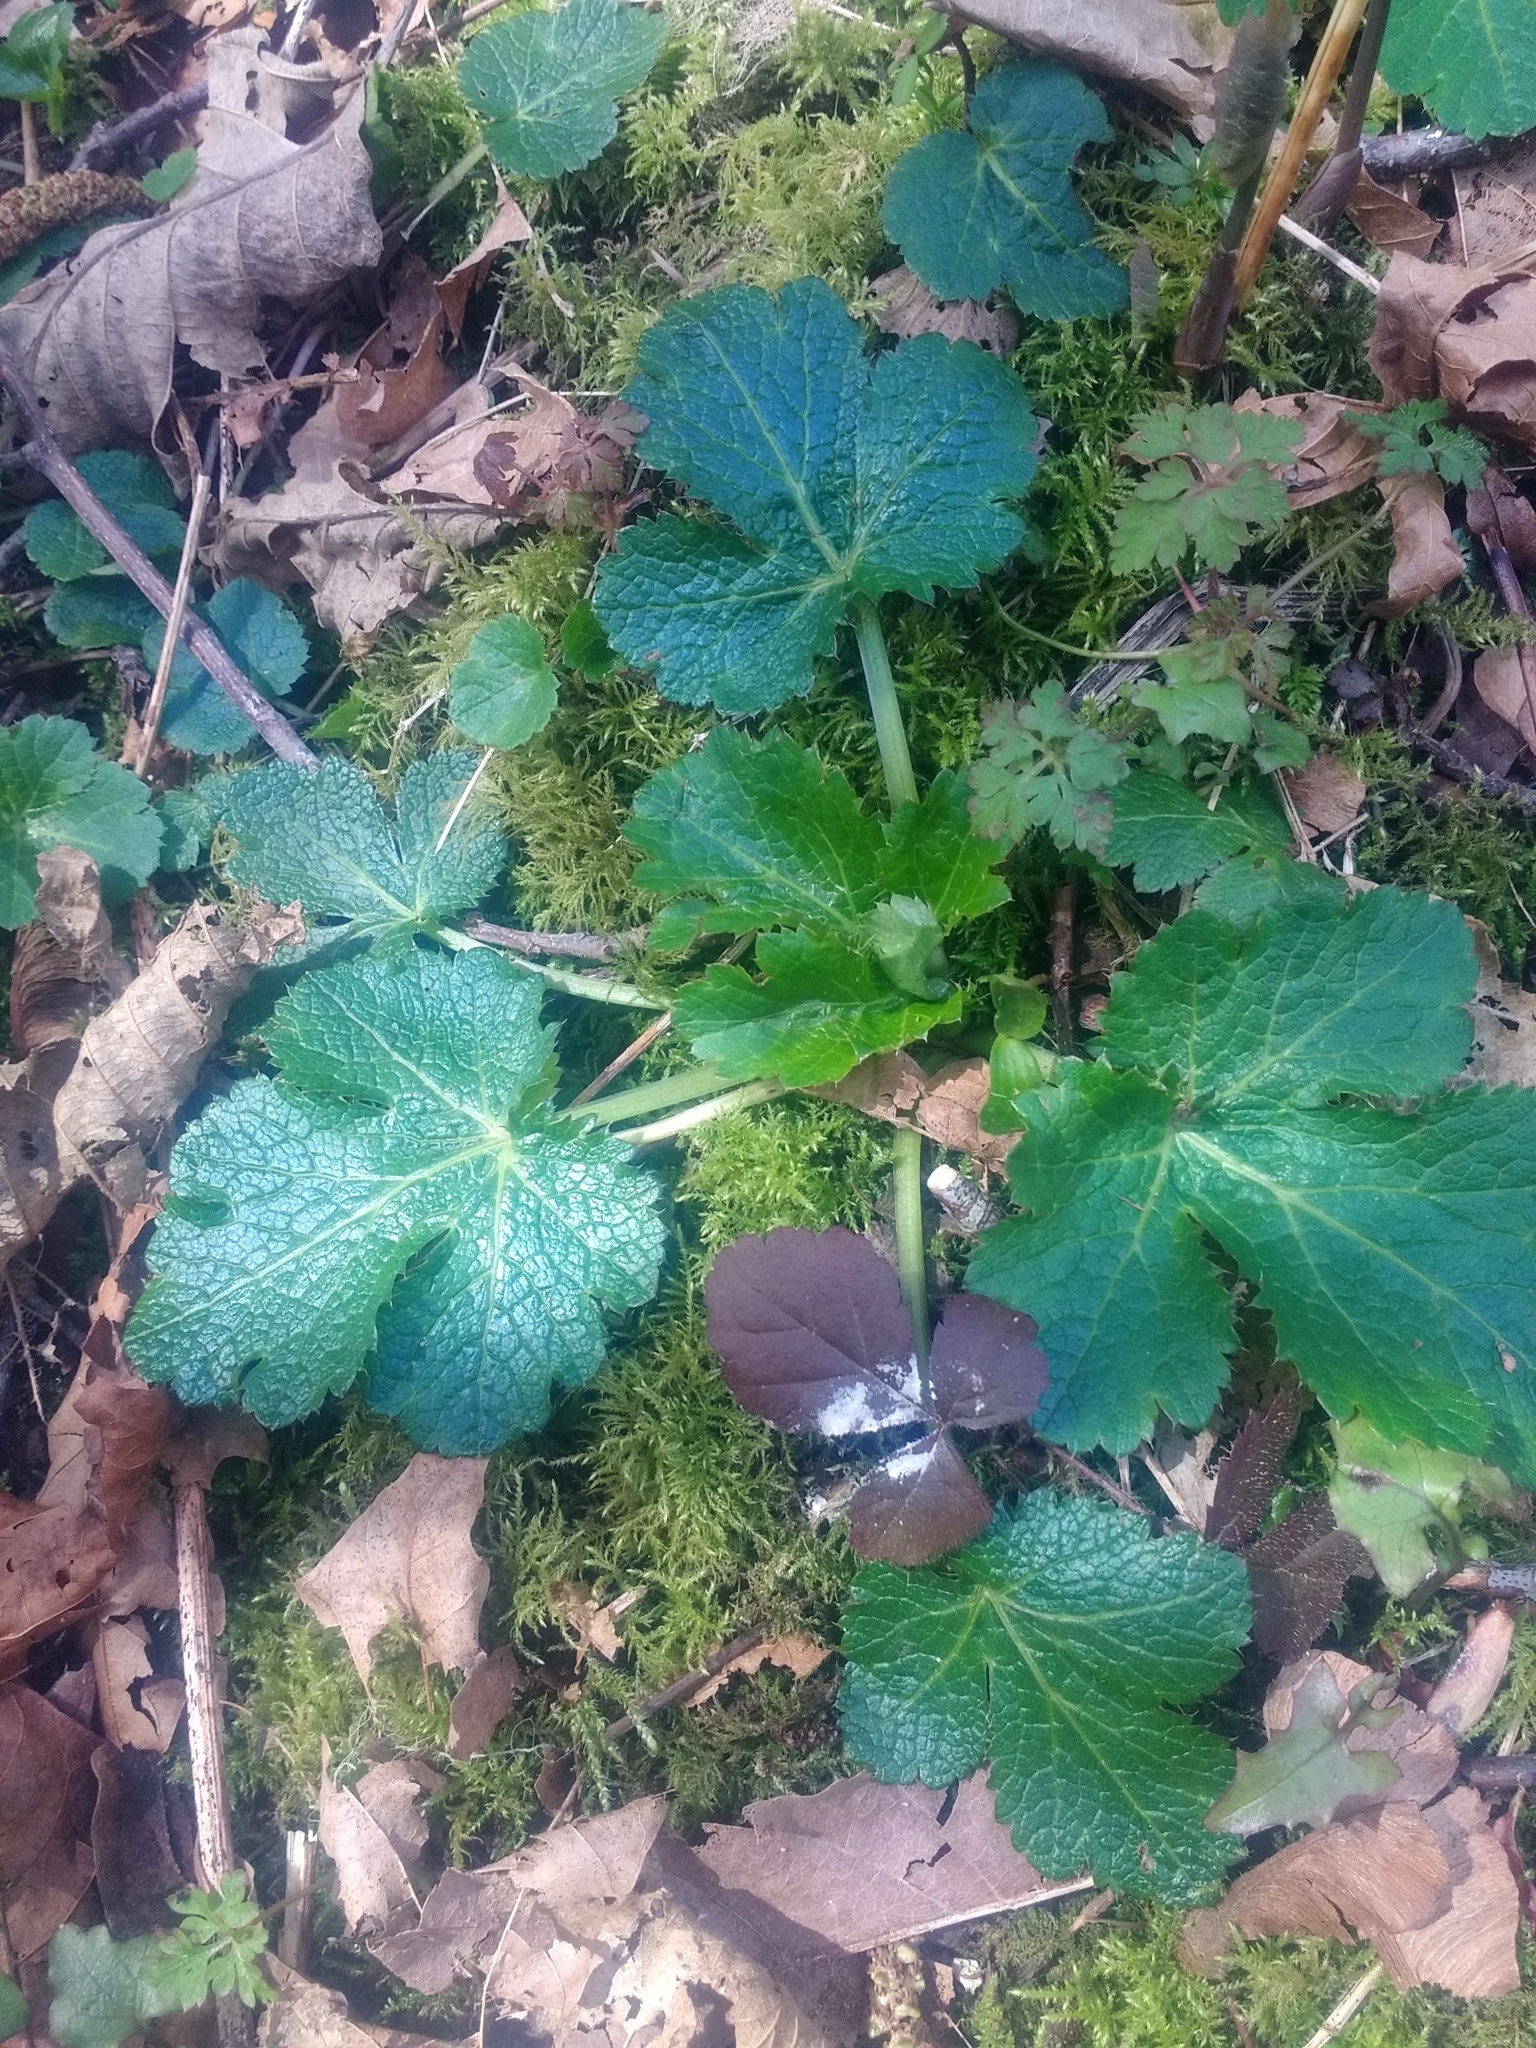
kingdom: Plantae
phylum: Tracheophyta
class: Magnoliopsida
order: Apiales
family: Apiaceae
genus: Sanicula
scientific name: Sanicula crassicaulis
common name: Western snakeroot
